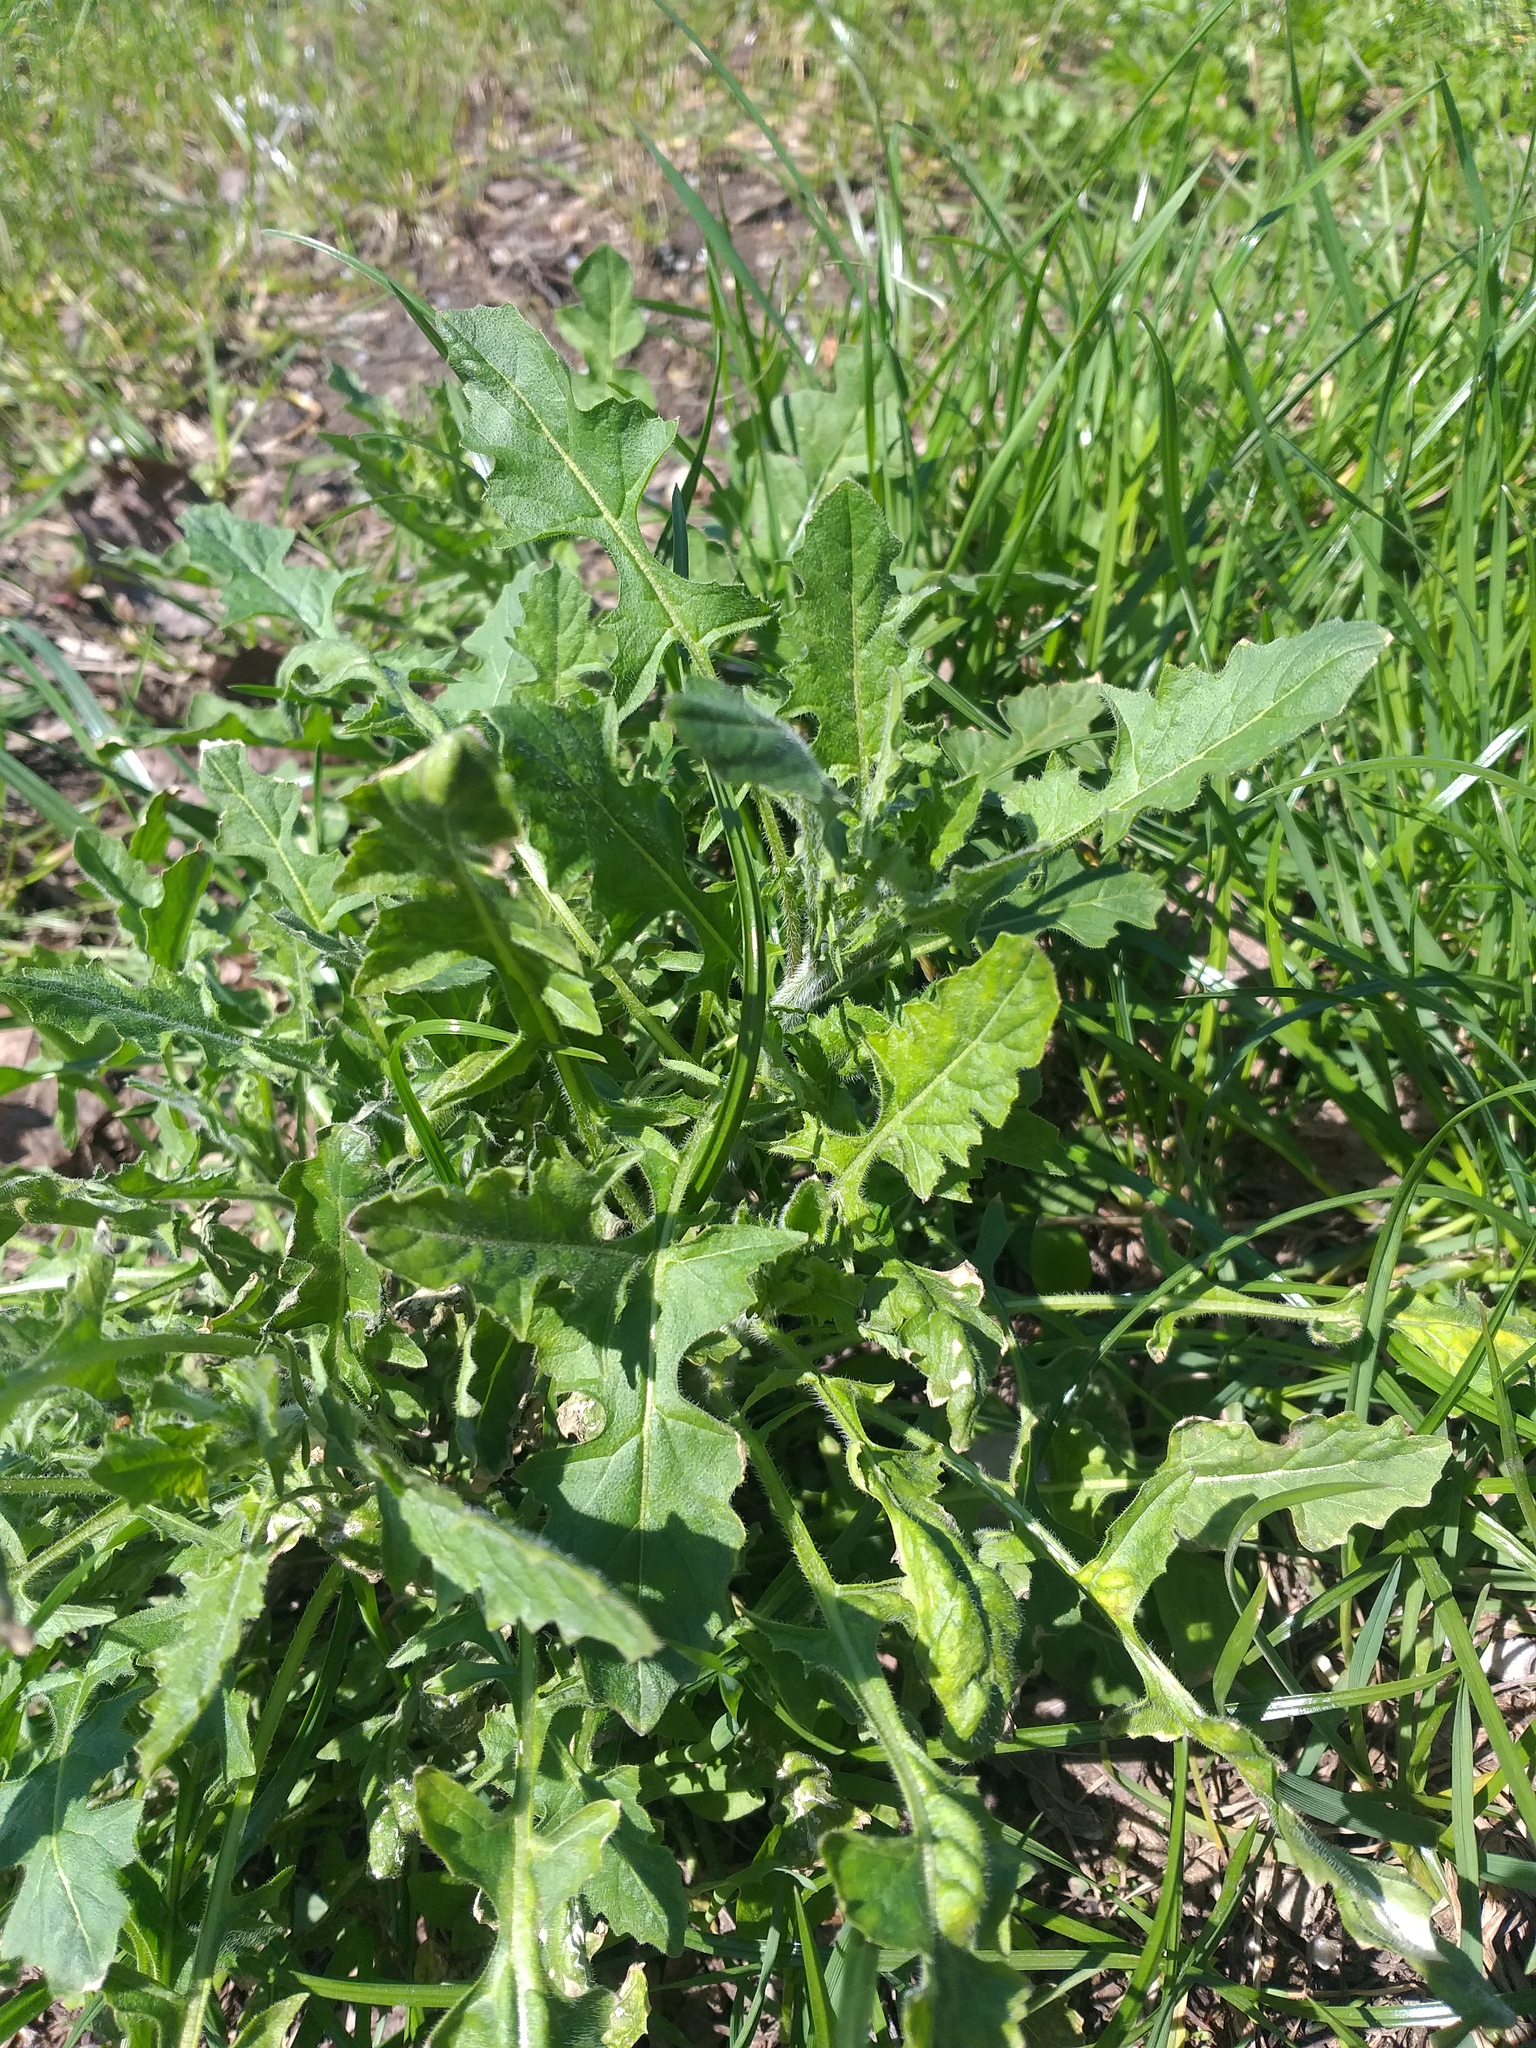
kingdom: Plantae
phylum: Tracheophyta
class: Magnoliopsida
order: Brassicales
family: Brassicaceae
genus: Sisymbrium
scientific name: Sisymbrium loeselii
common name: False london-rocket
